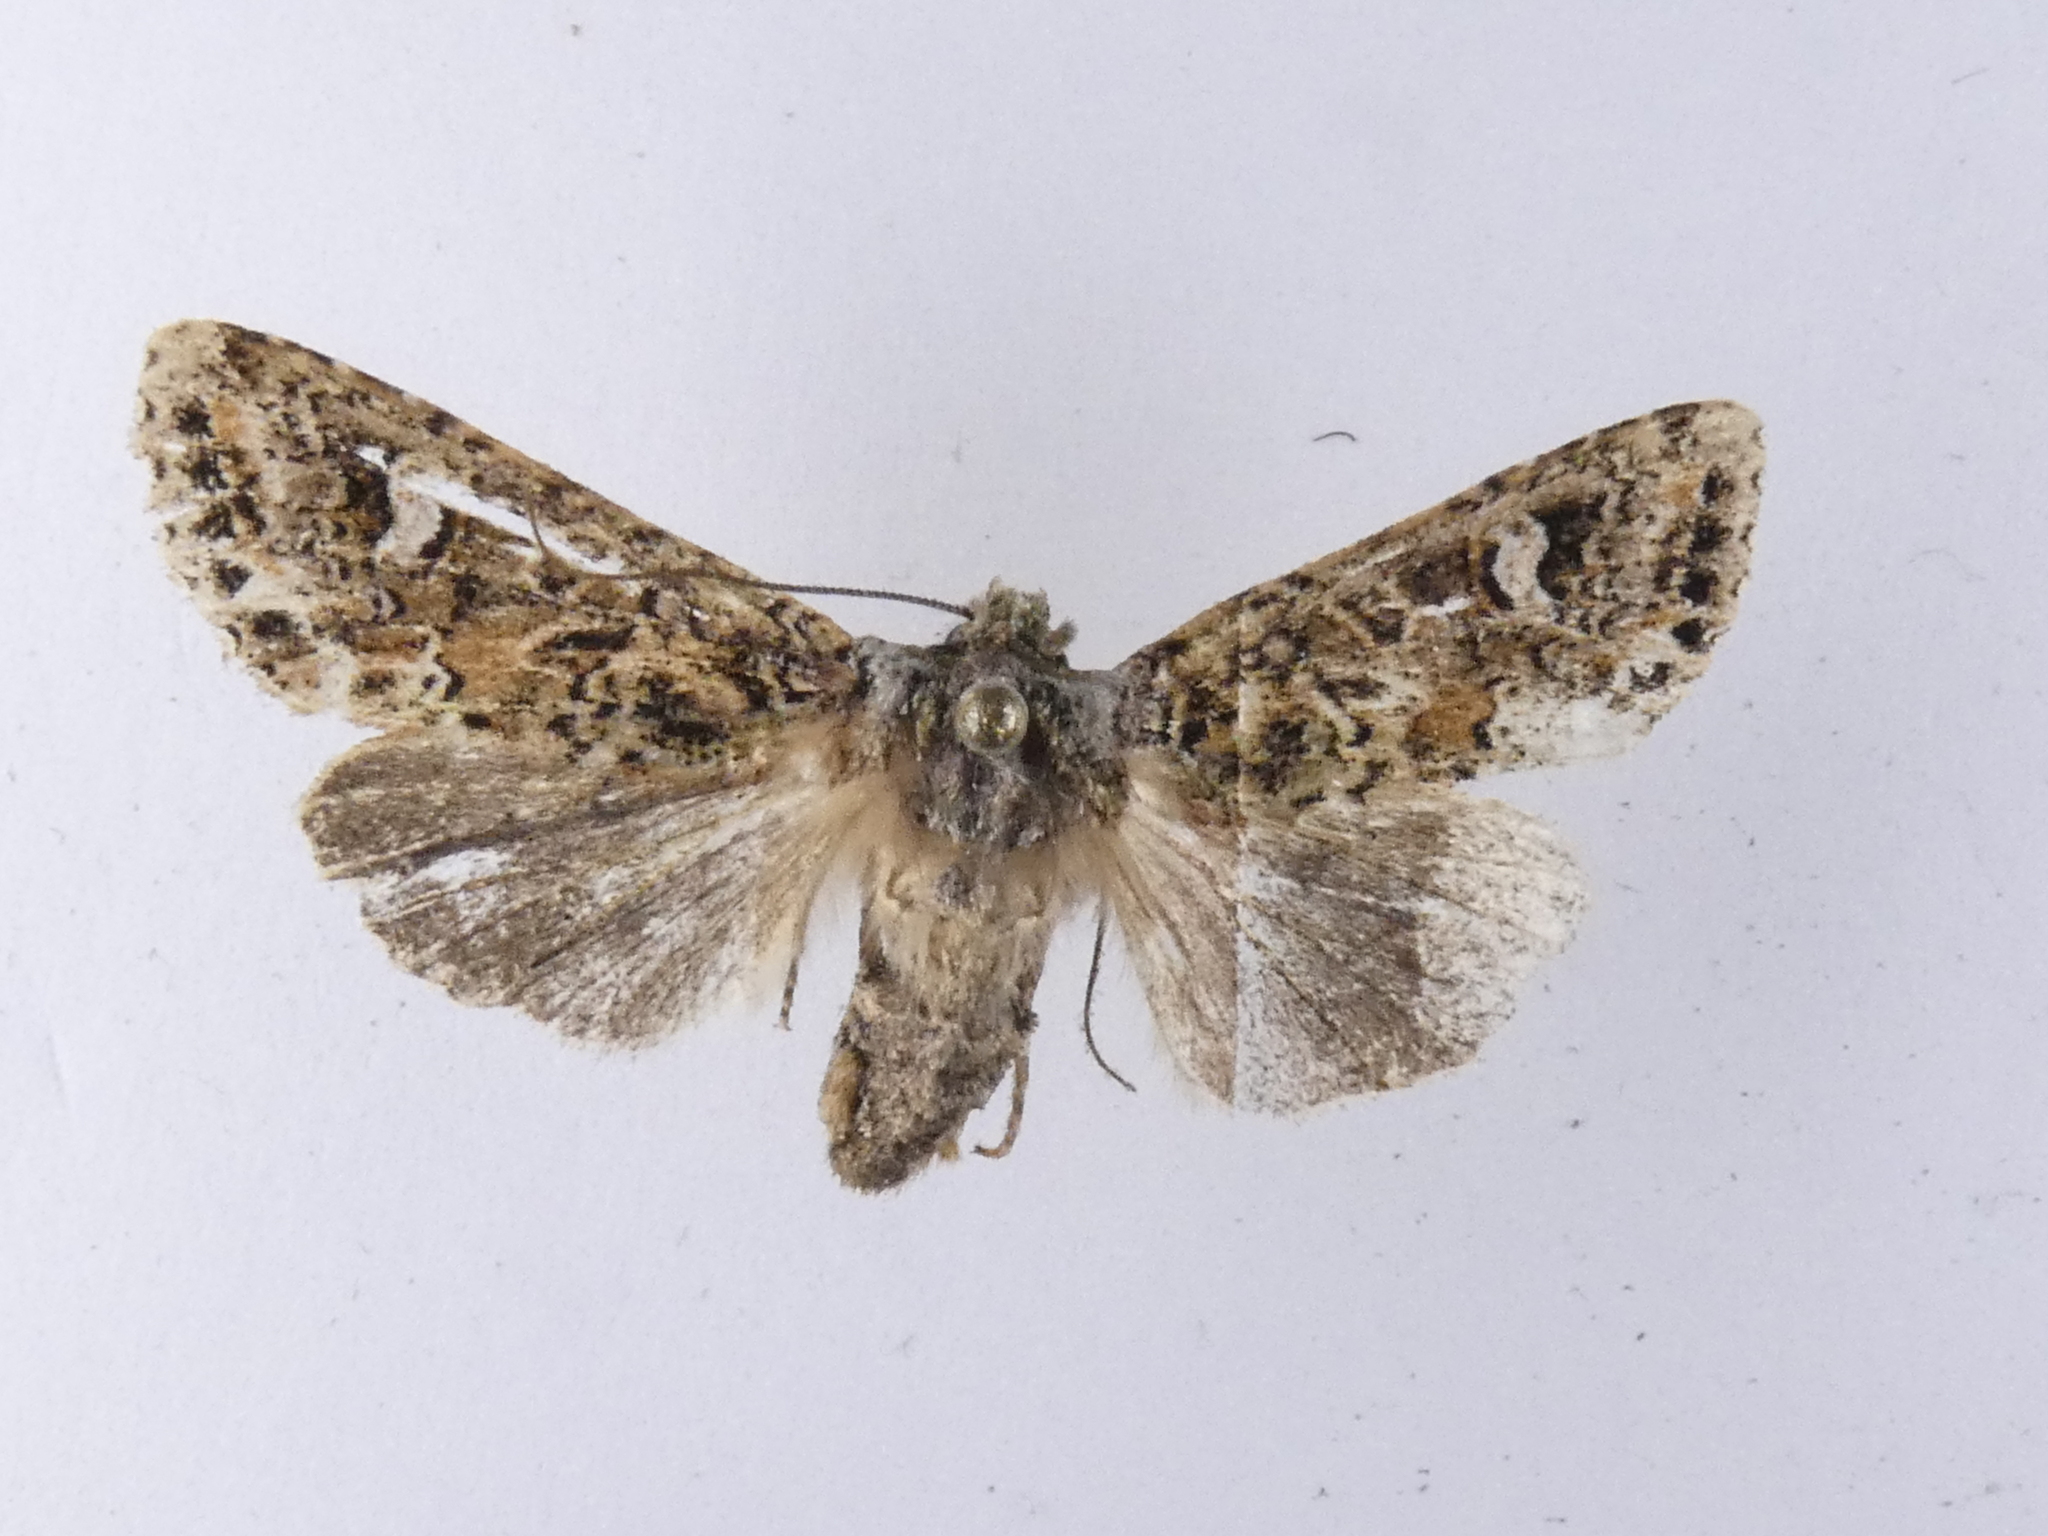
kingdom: Animalia
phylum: Arthropoda
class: Insecta
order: Lepidoptera
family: Noctuidae
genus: Ichneutica
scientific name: Ichneutica
